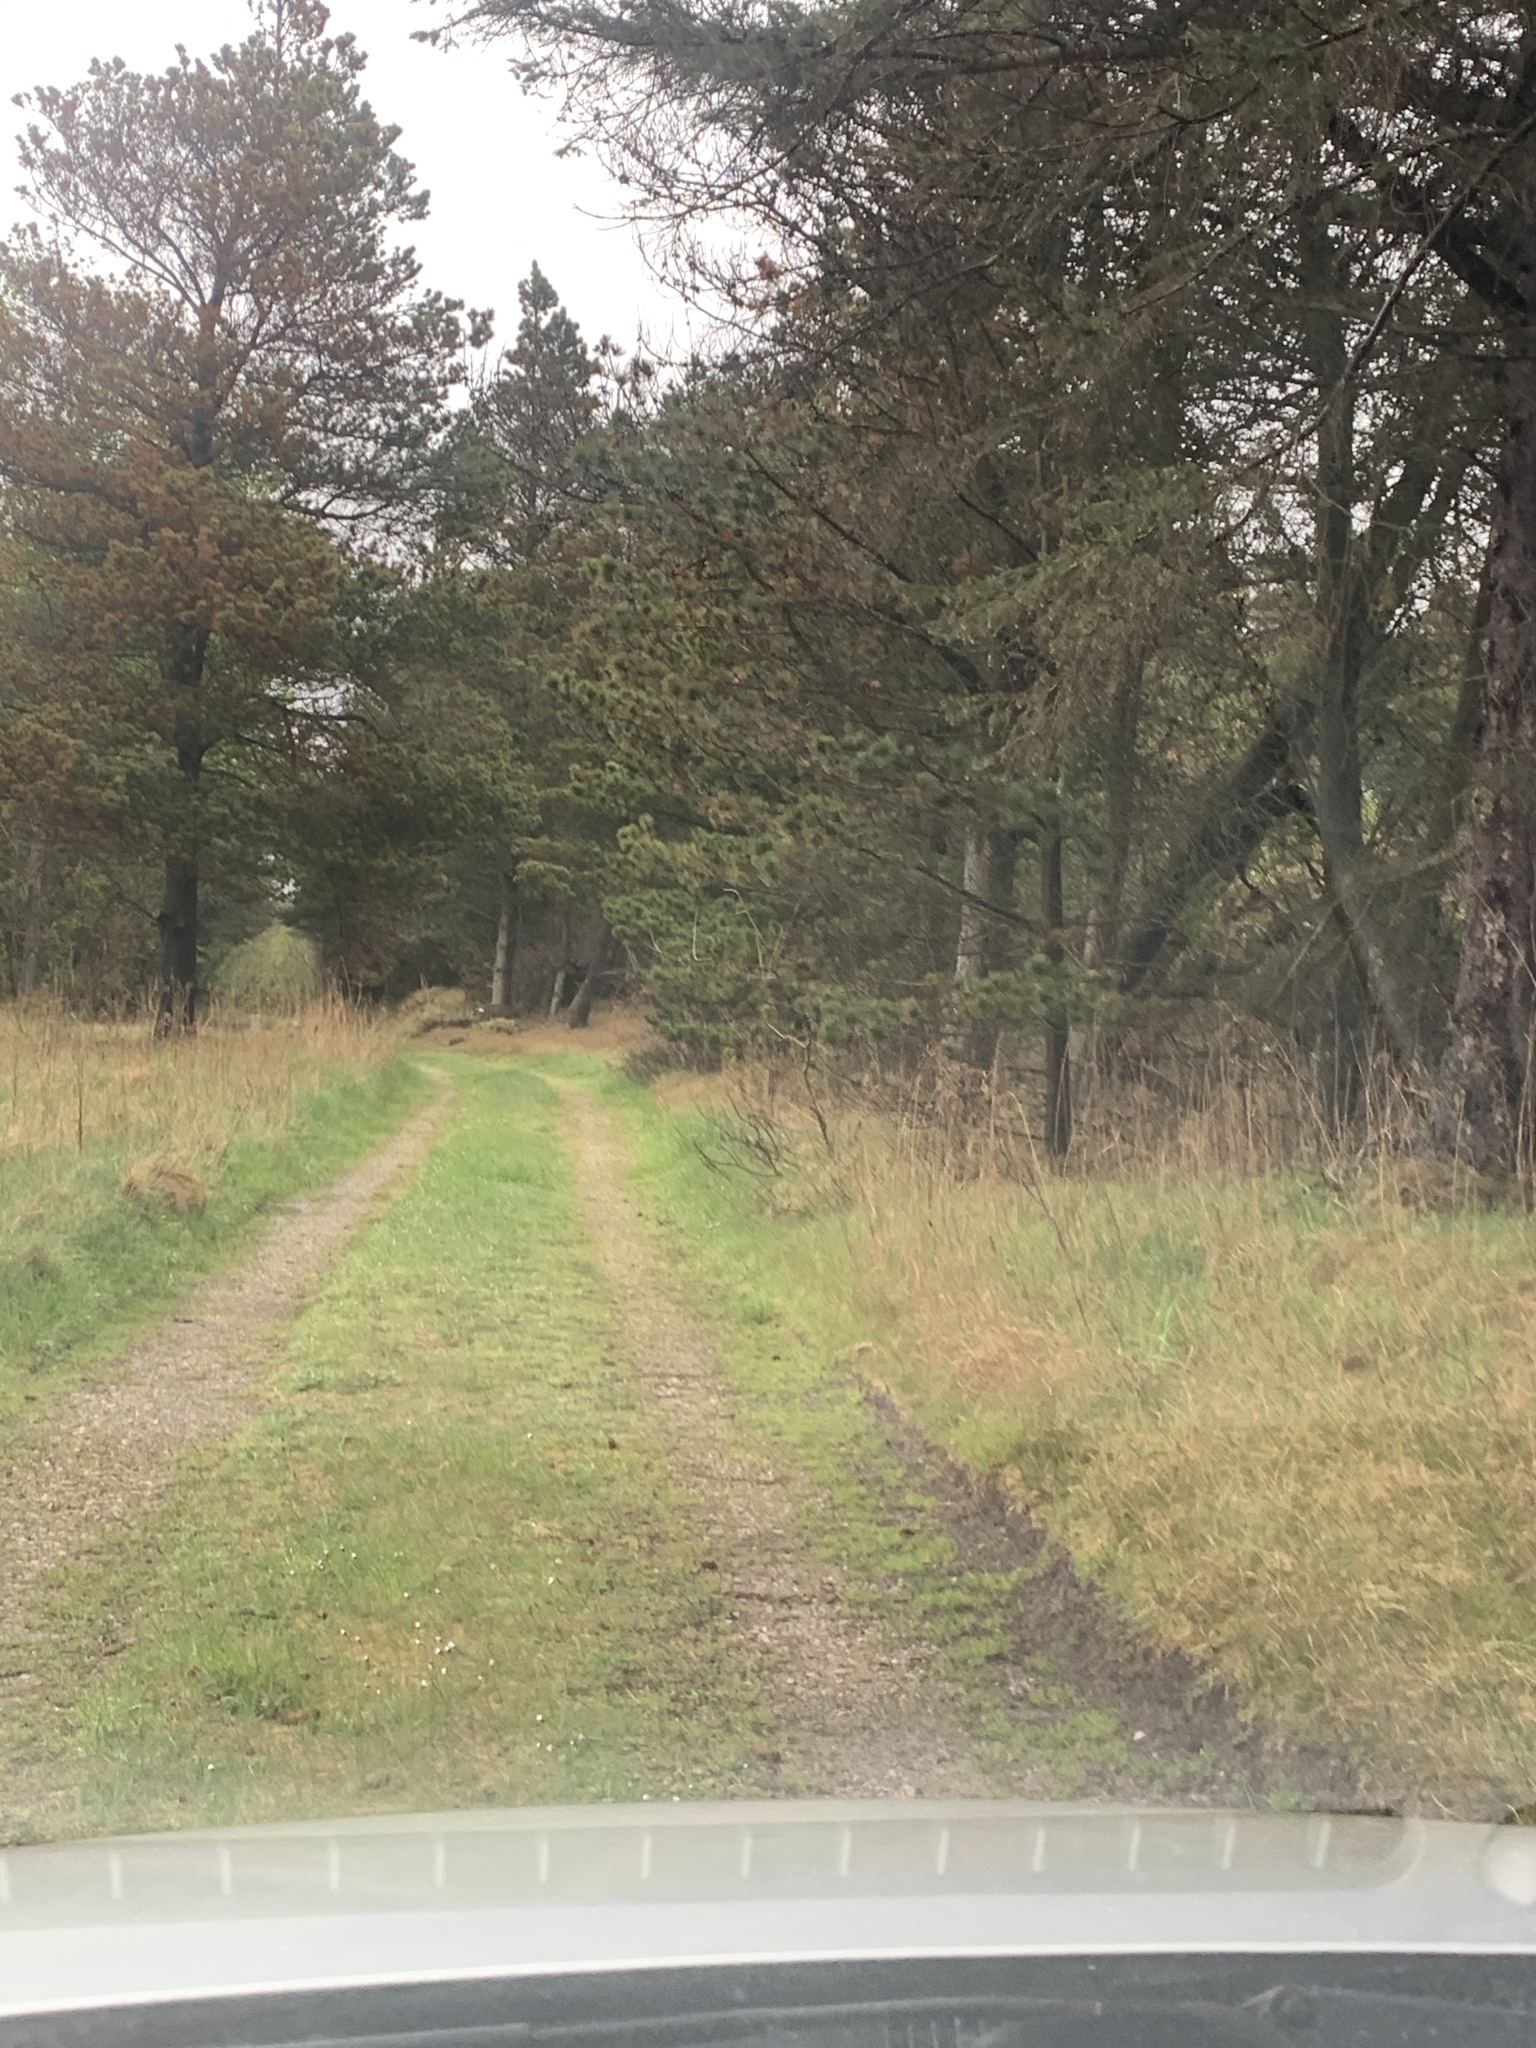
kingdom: Animalia
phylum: Chordata
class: Mammalia
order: Artiodactyla
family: Cervidae
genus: Capreolus
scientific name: Capreolus capreolus
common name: Western roe deer
